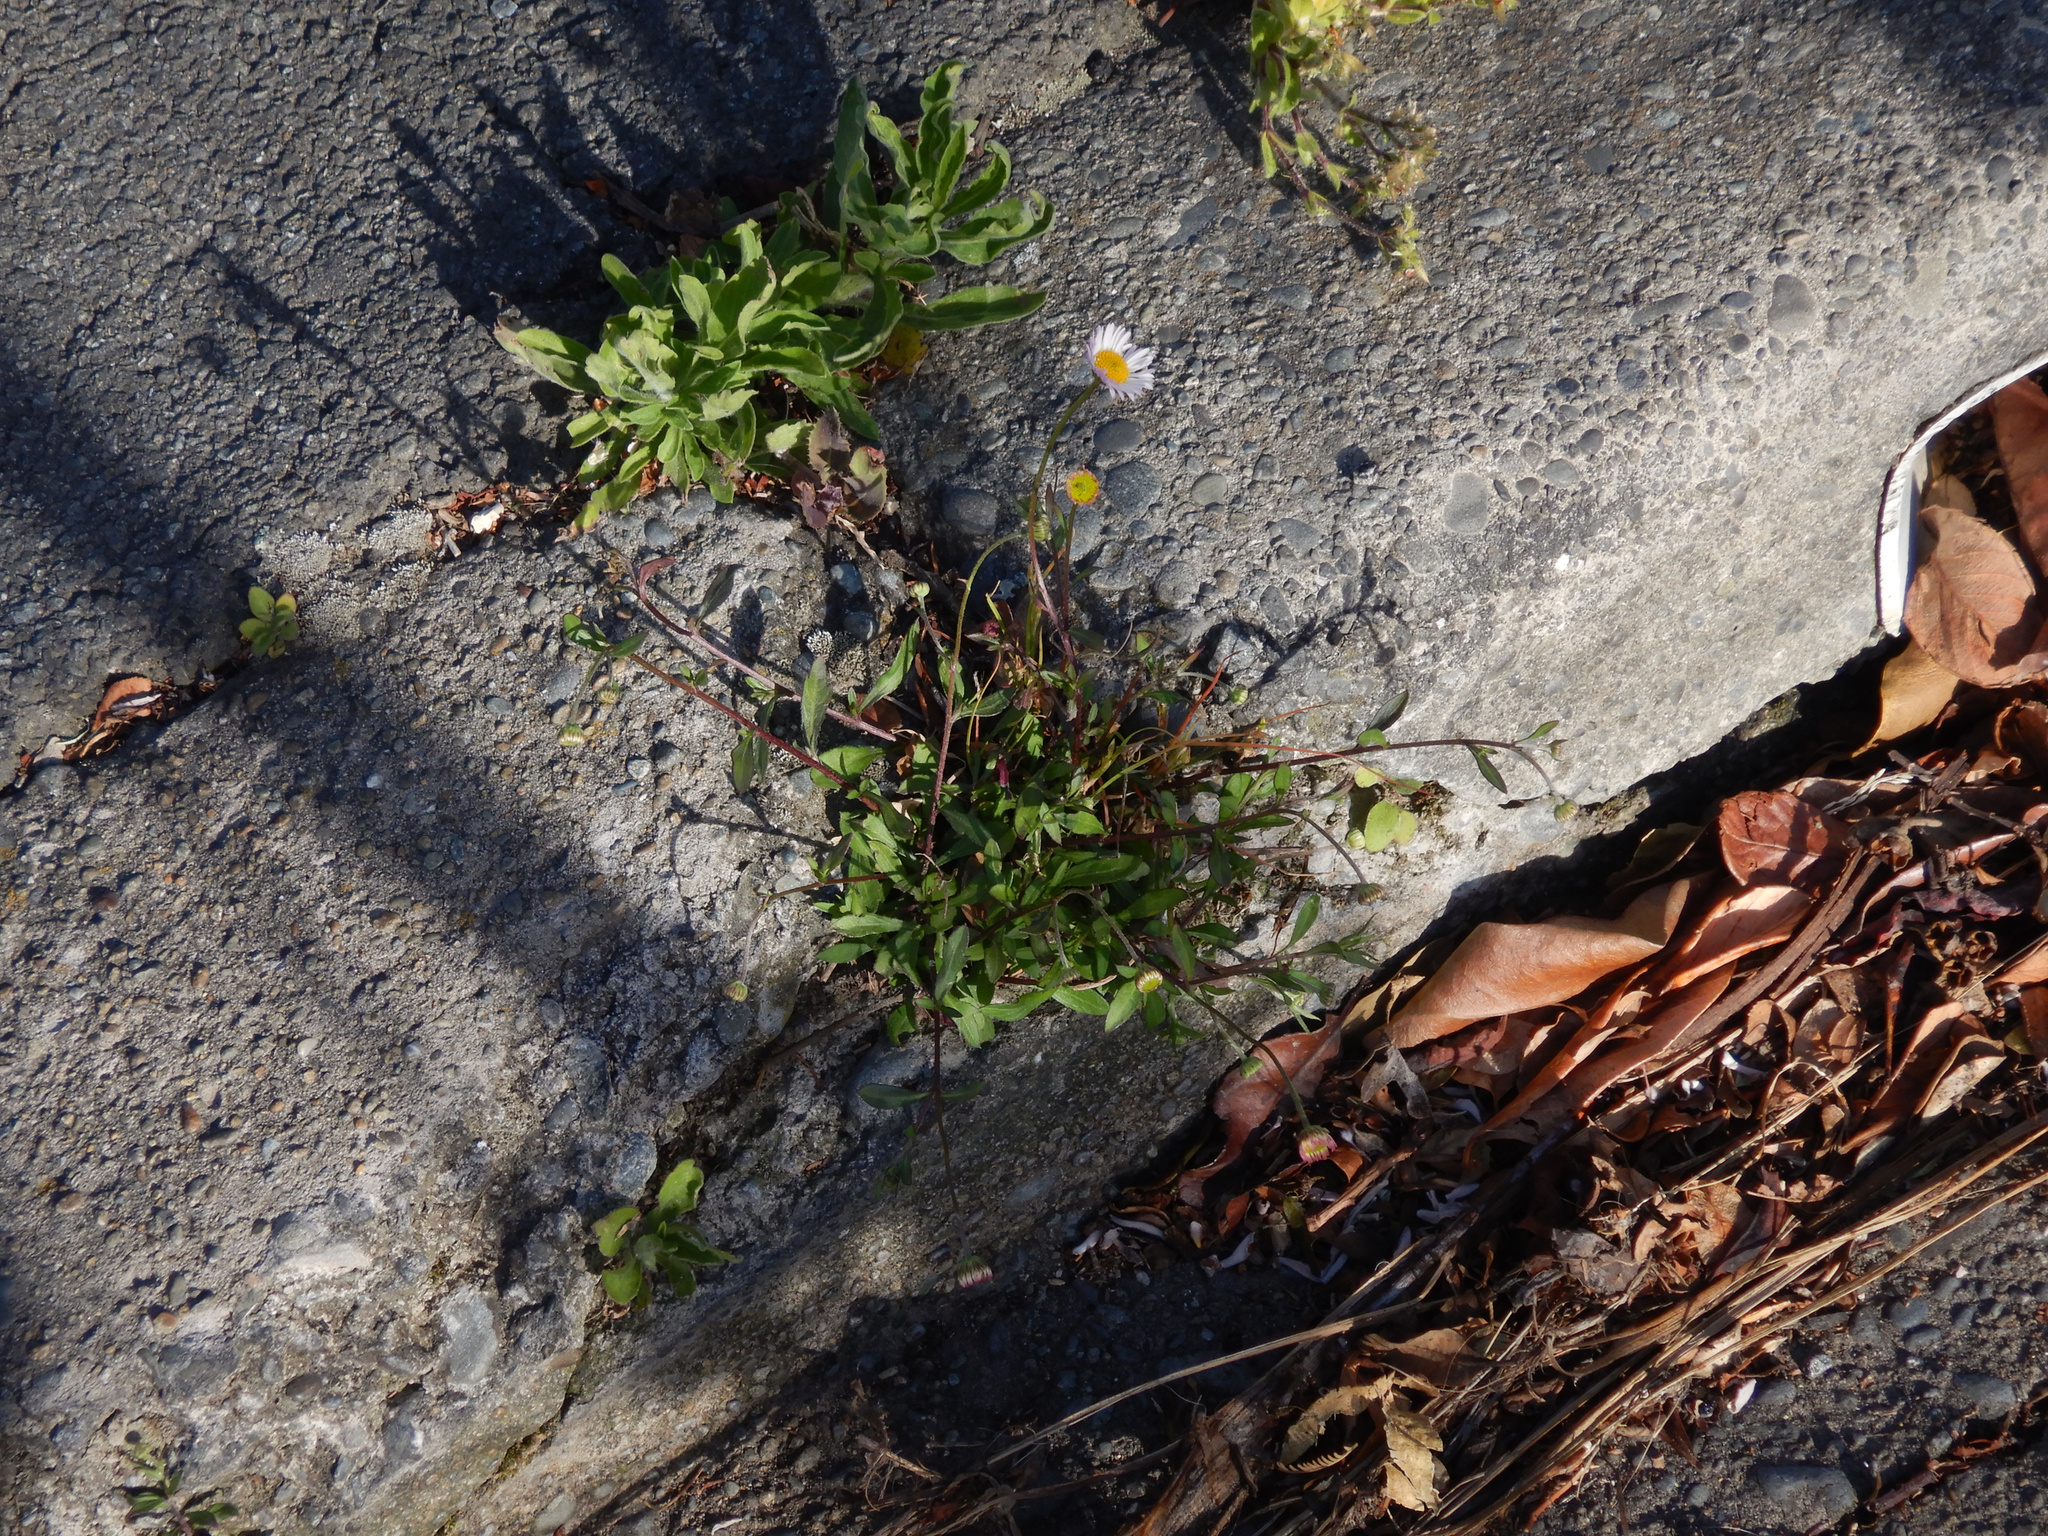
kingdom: Plantae
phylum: Tracheophyta
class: Magnoliopsida
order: Asterales
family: Asteraceae
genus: Erigeron
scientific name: Erigeron karvinskianus
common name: Mexican fleabane
